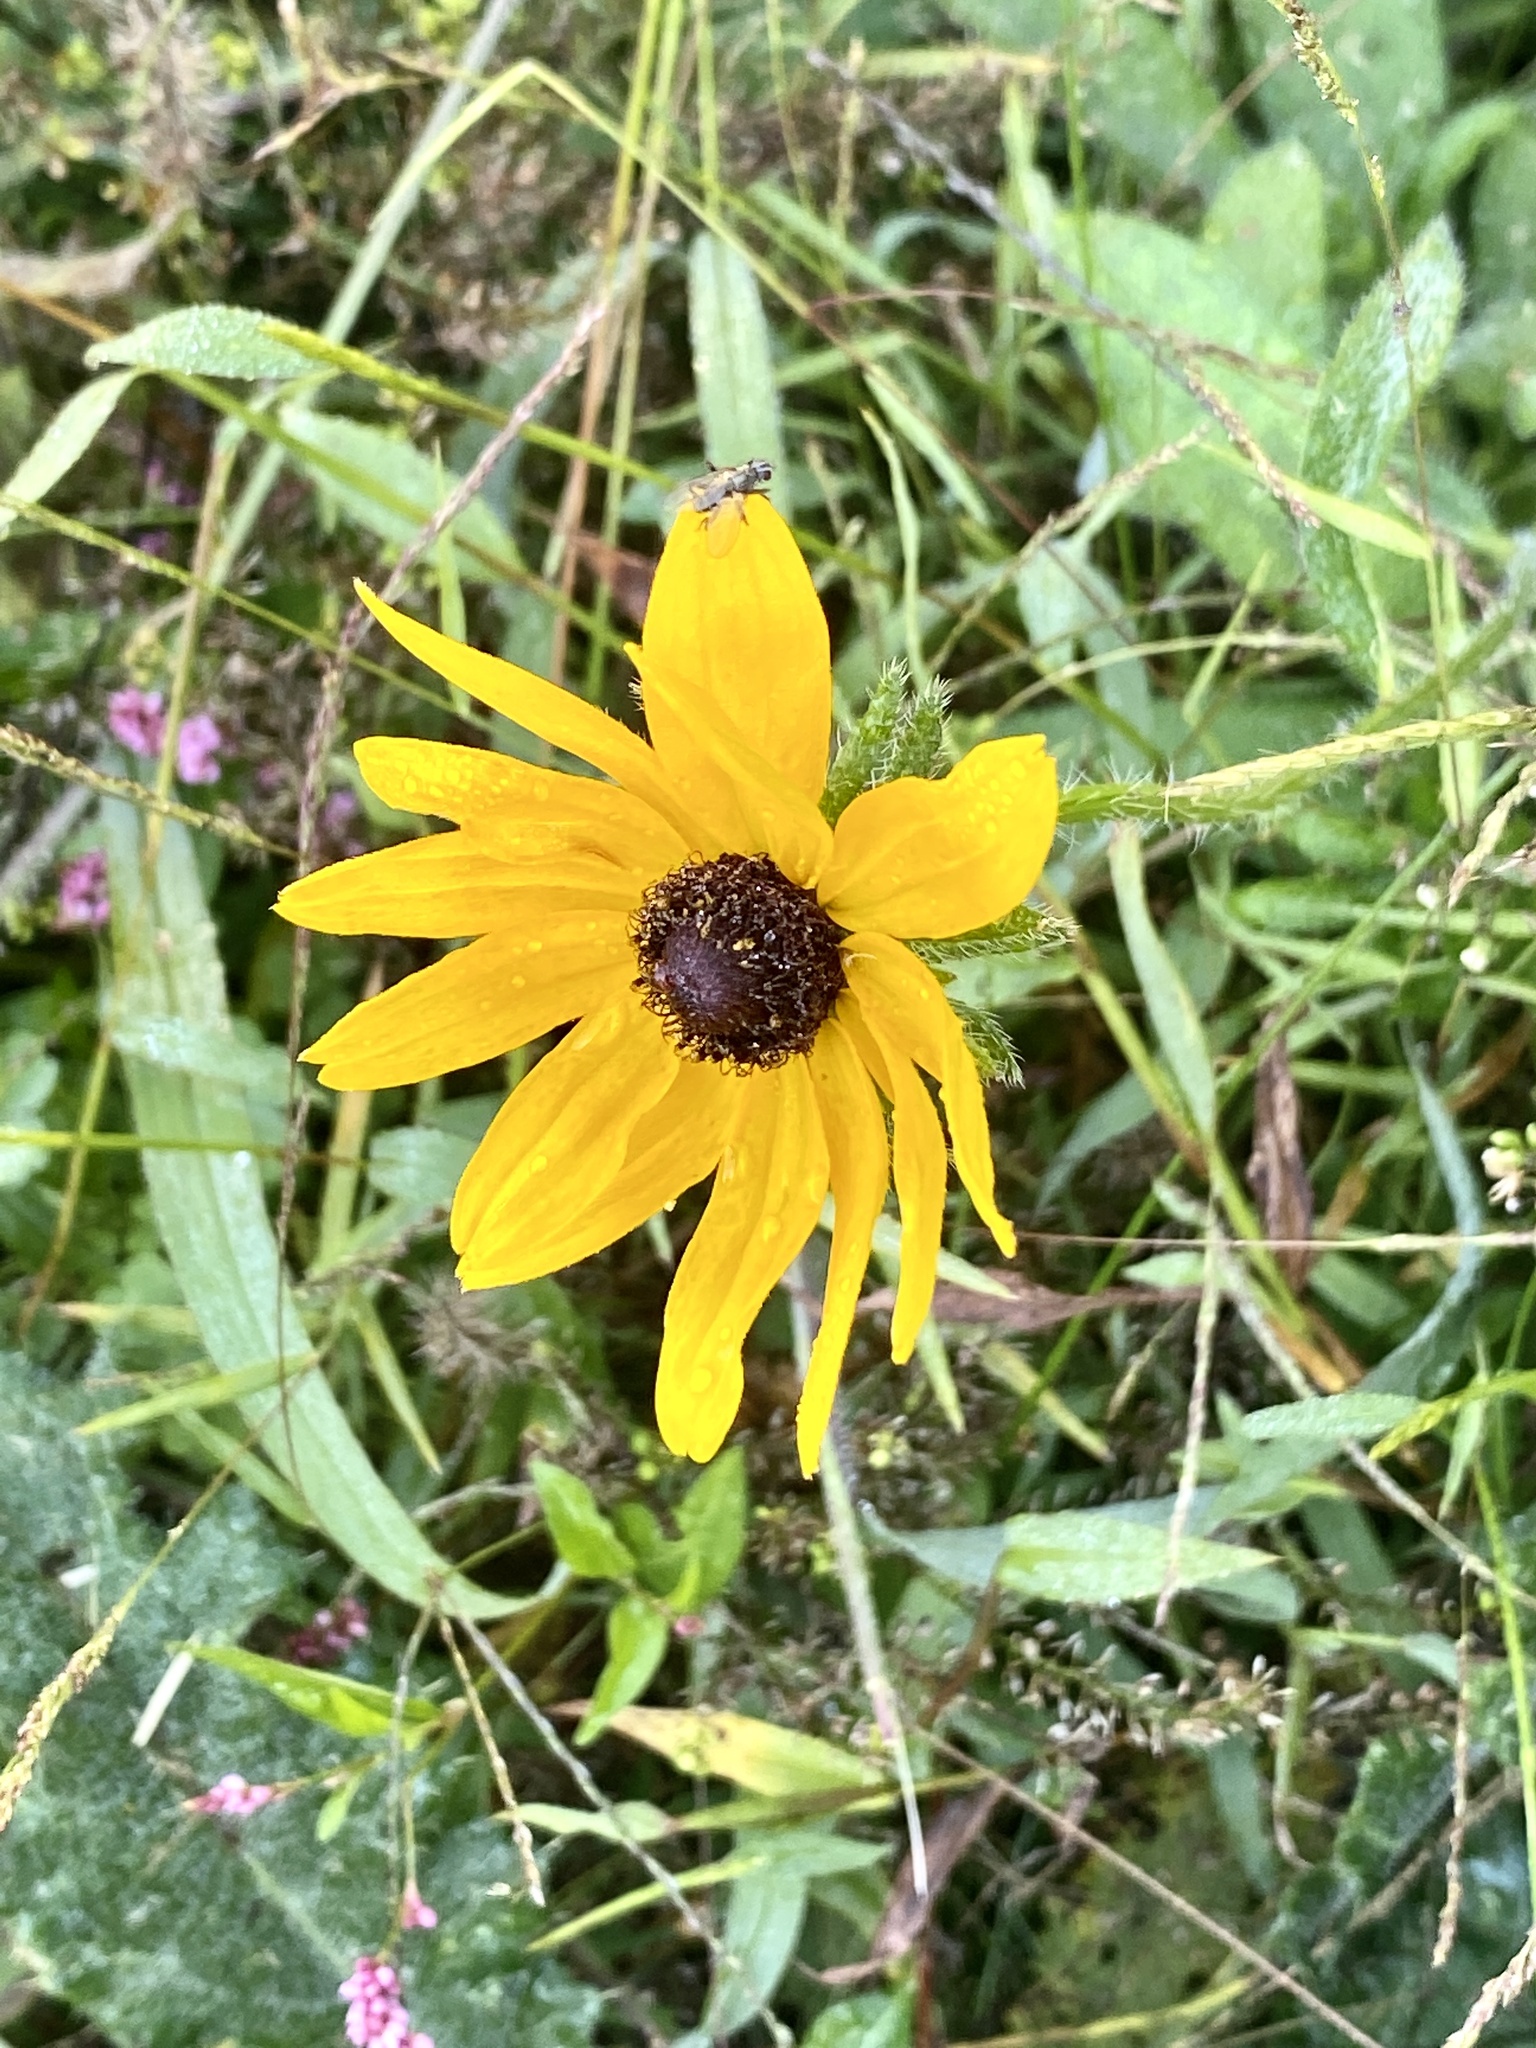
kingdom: Plantae
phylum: Tracheophyta
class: Magnoliopsida
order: Asterales
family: Asteraceae
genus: Rudbeckia
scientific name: Rudbeckia hirta
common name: Black-eyed-susan
